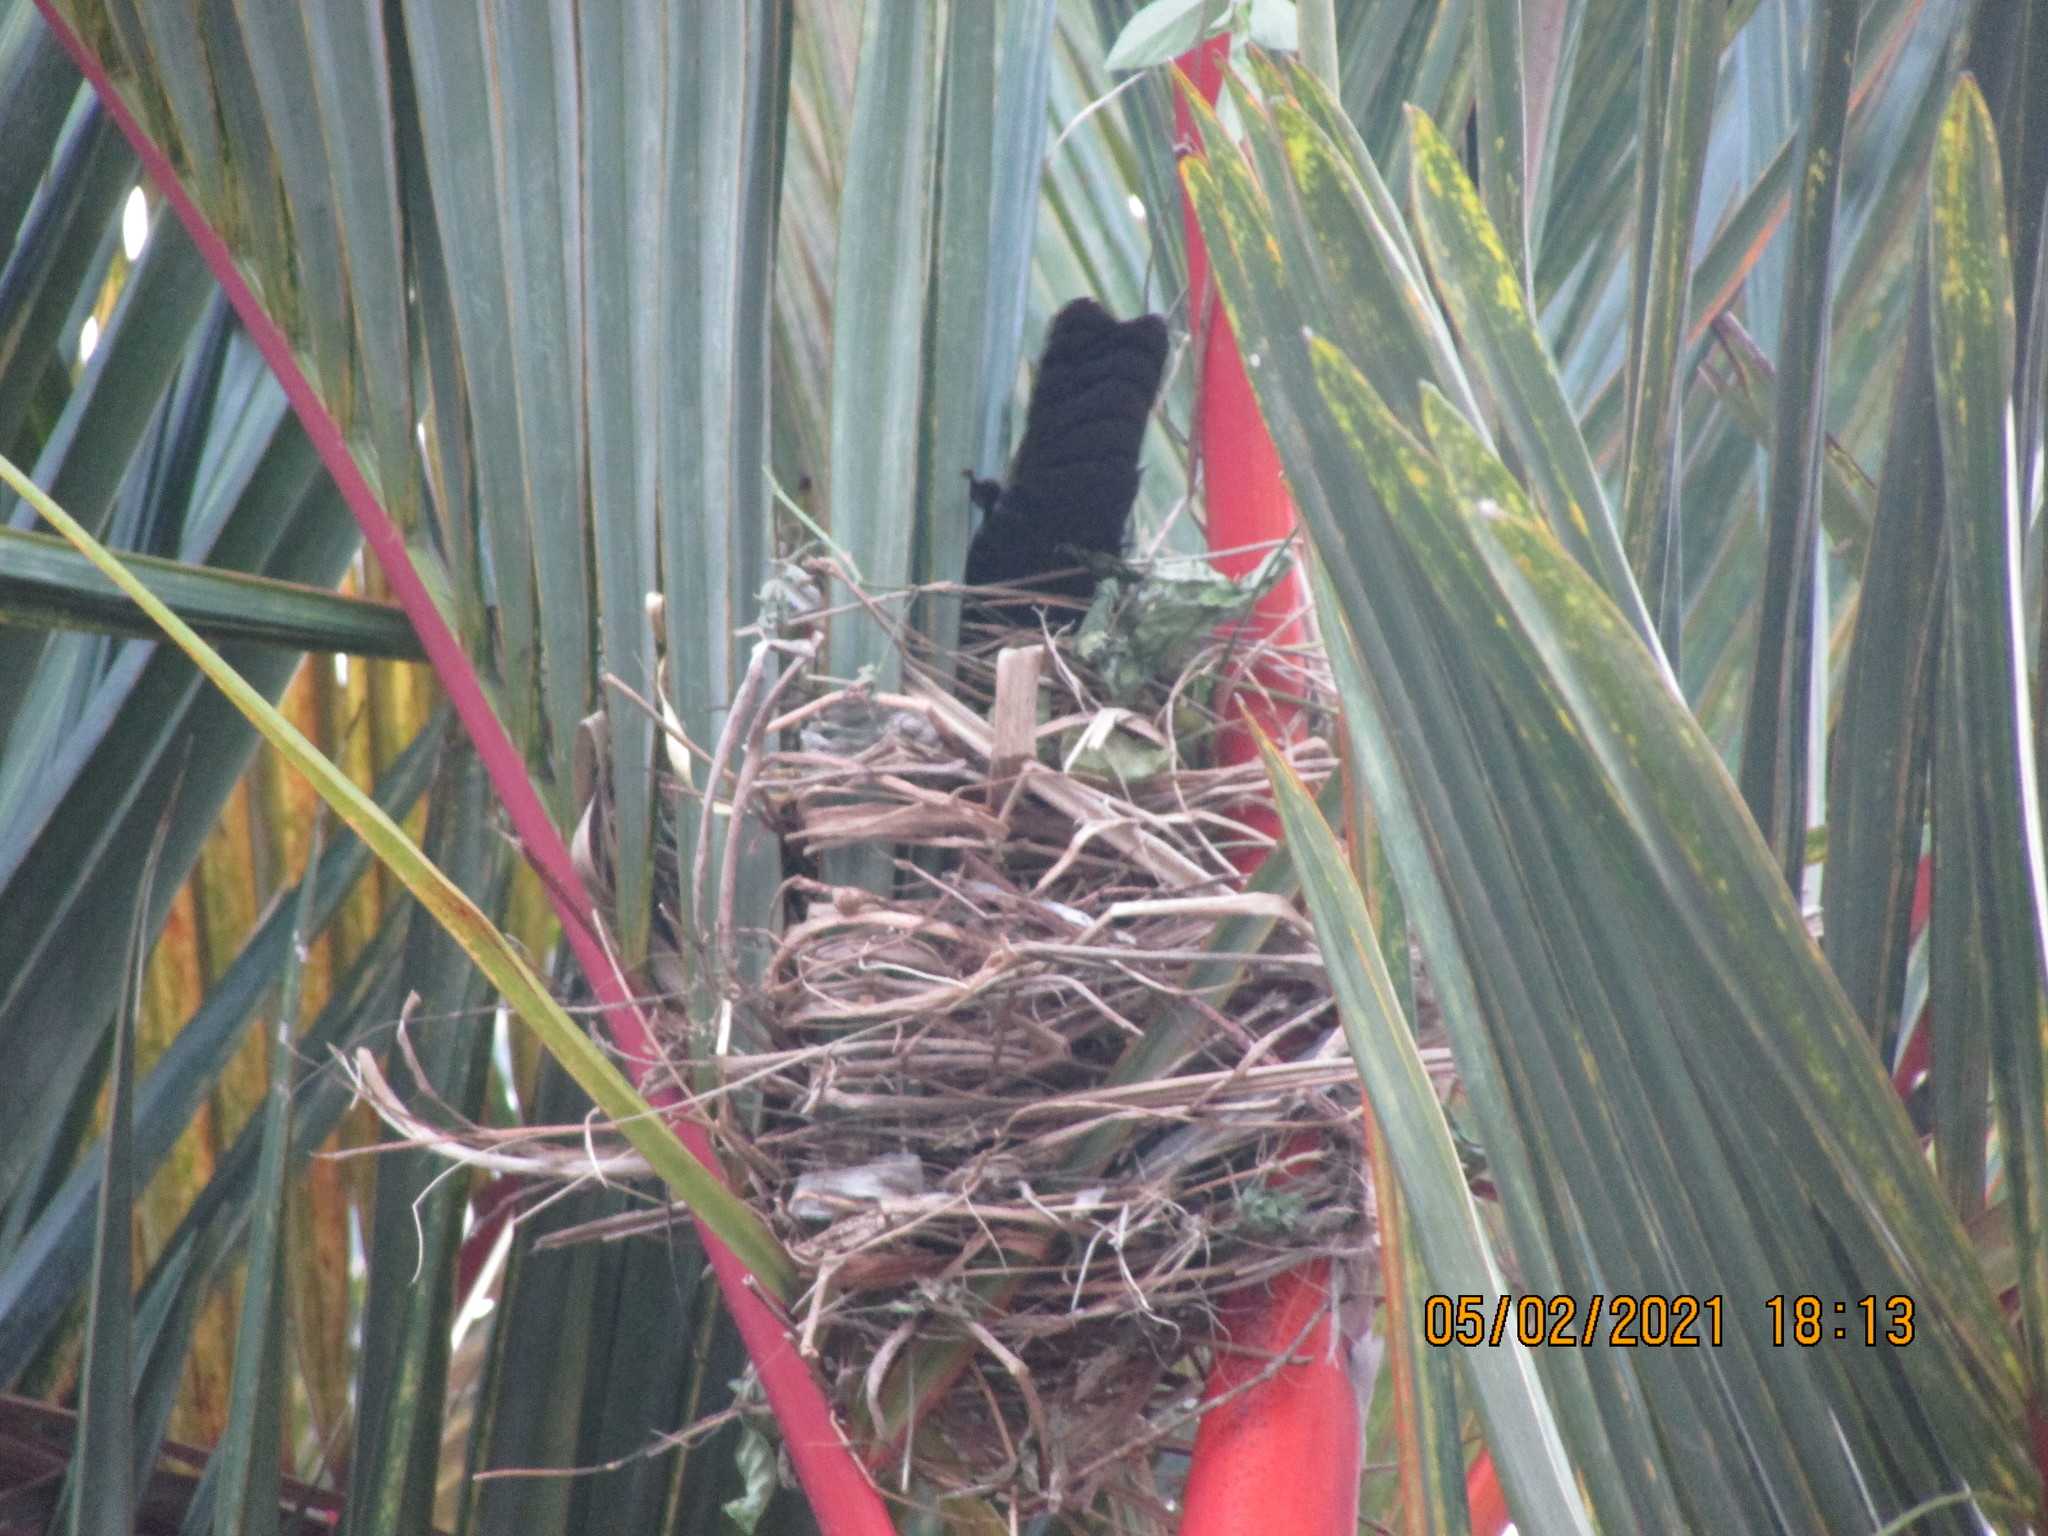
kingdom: Animalia
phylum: Chordata
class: Aves
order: Passeriformes
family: Icteridae
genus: Quiscalus
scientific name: Quiscalus mexicanus
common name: Great-tailed grackle
